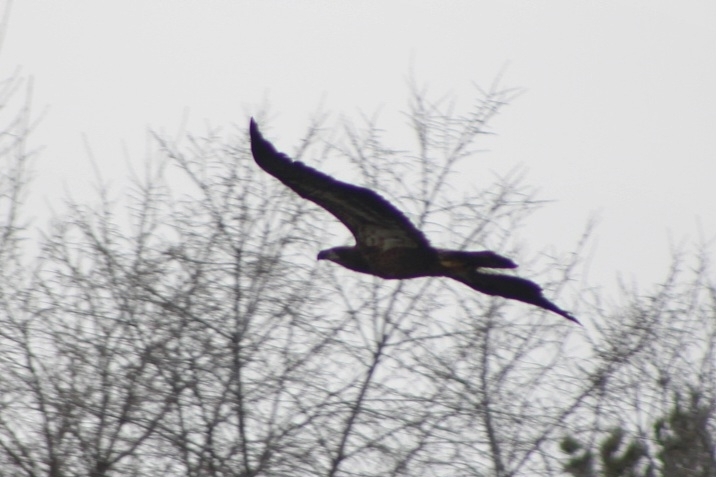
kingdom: Animalia
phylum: Chordata
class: Aves
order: Accipitriformes
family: Accipitridae
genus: Haliaeetus
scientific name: Haliaeetus leucocephalus
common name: Bald eagle
